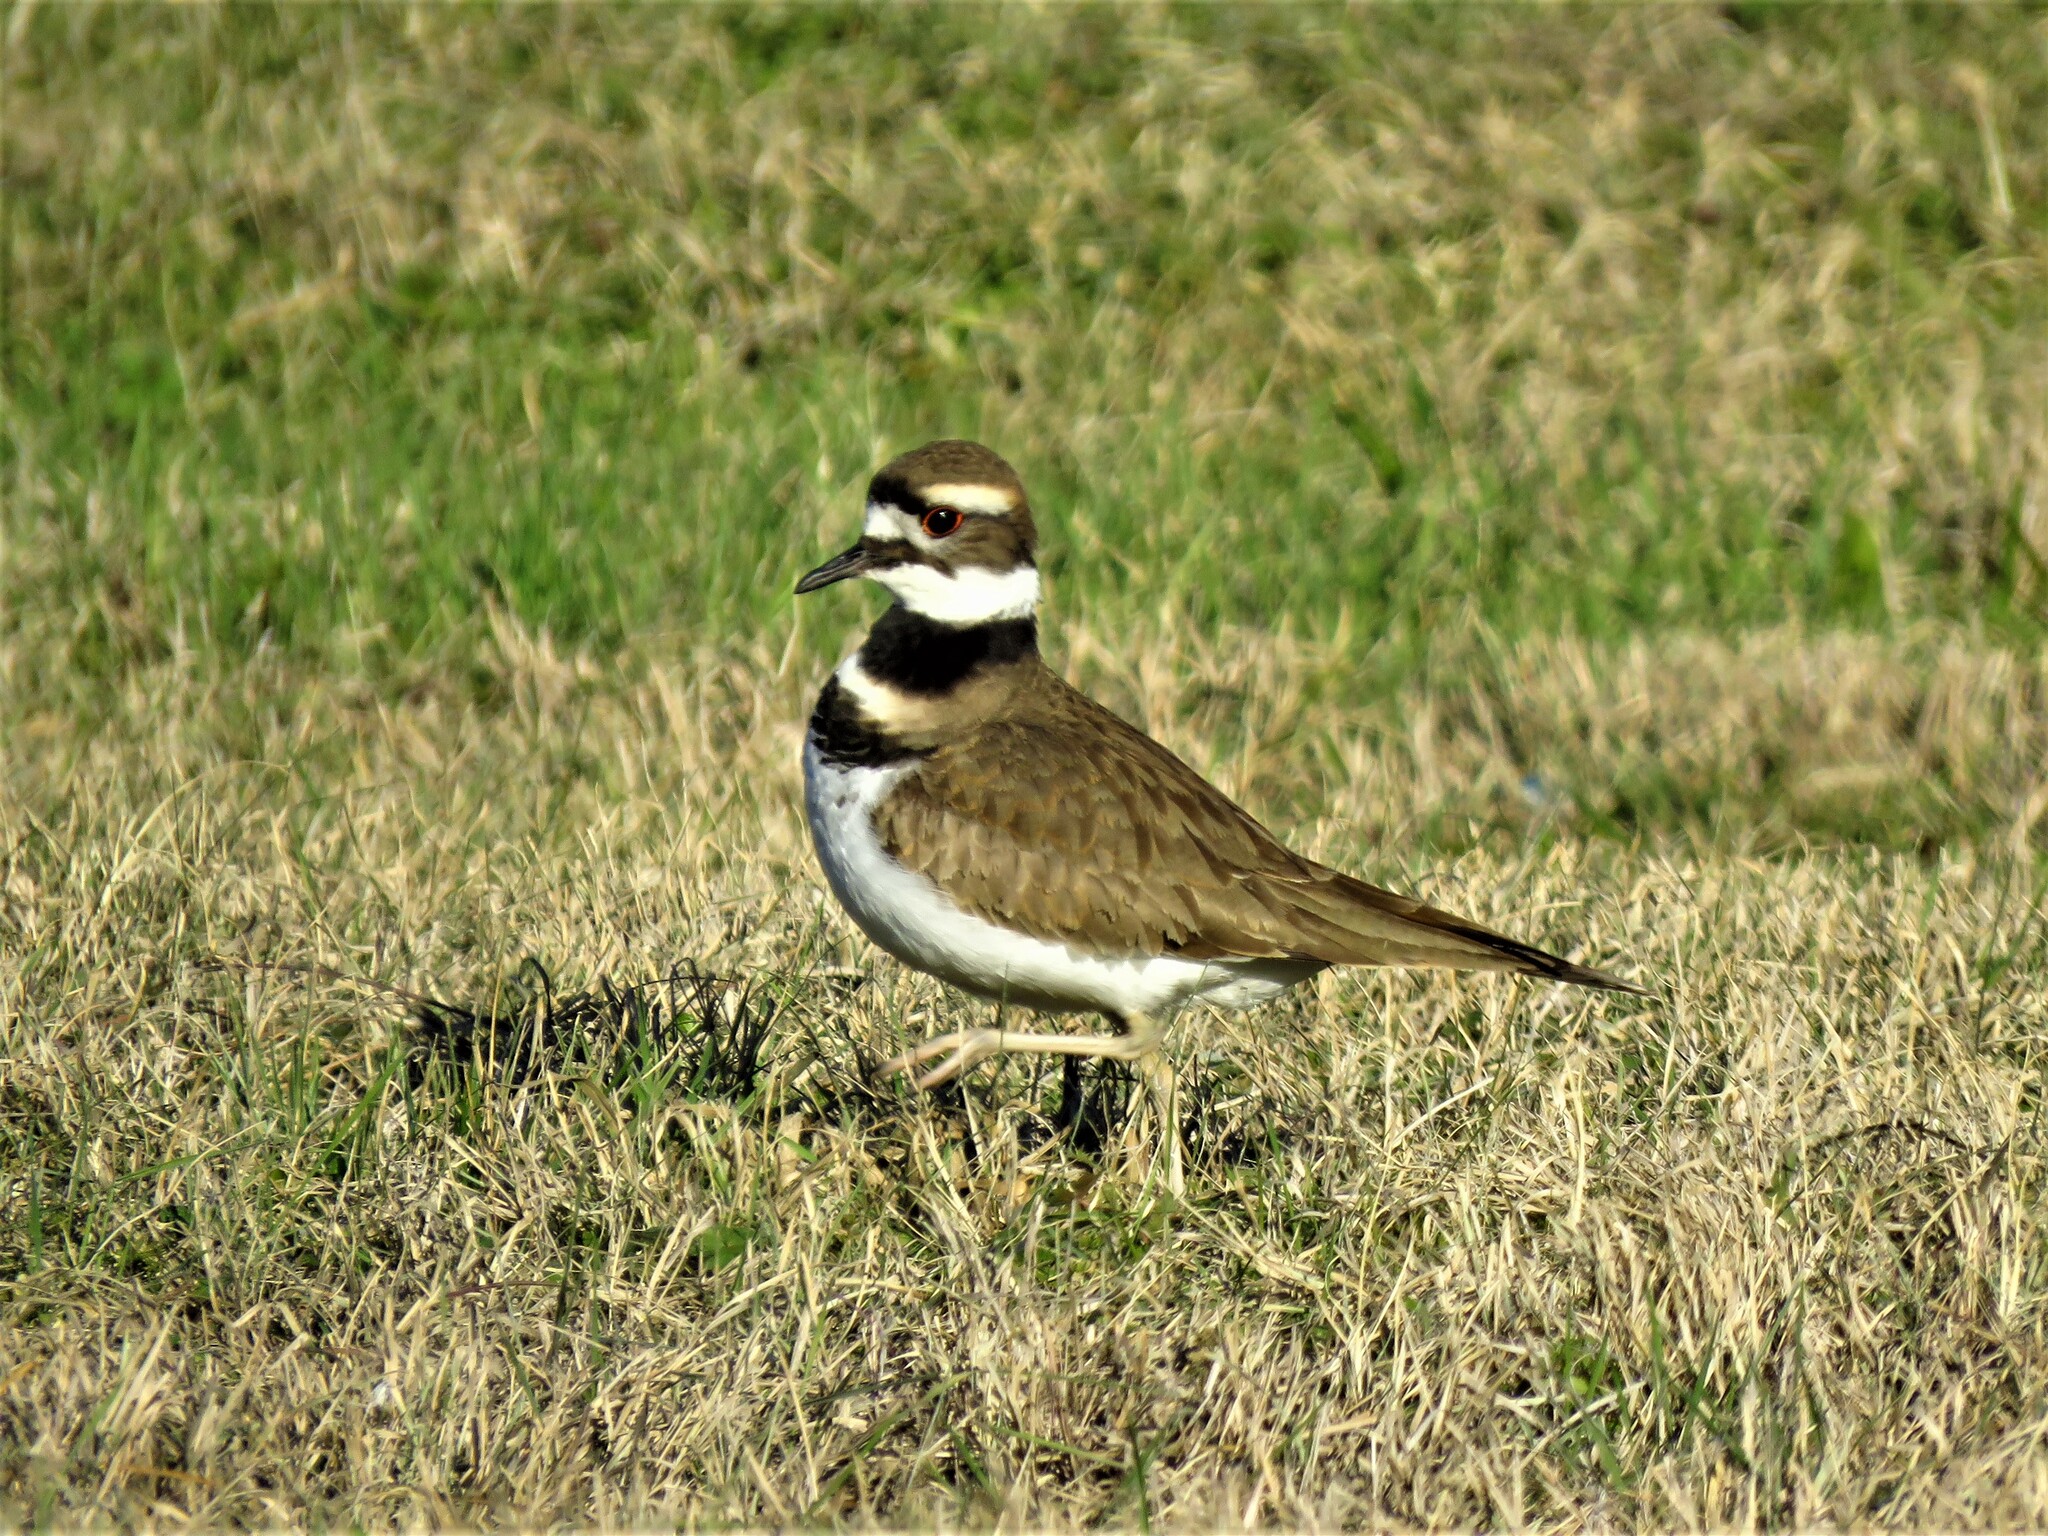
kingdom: Animalia
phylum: Chordata
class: Aves
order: Charadriiformes
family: Charadriidae
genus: Charadrius
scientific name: Charadrius vociferus
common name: Killdeer
